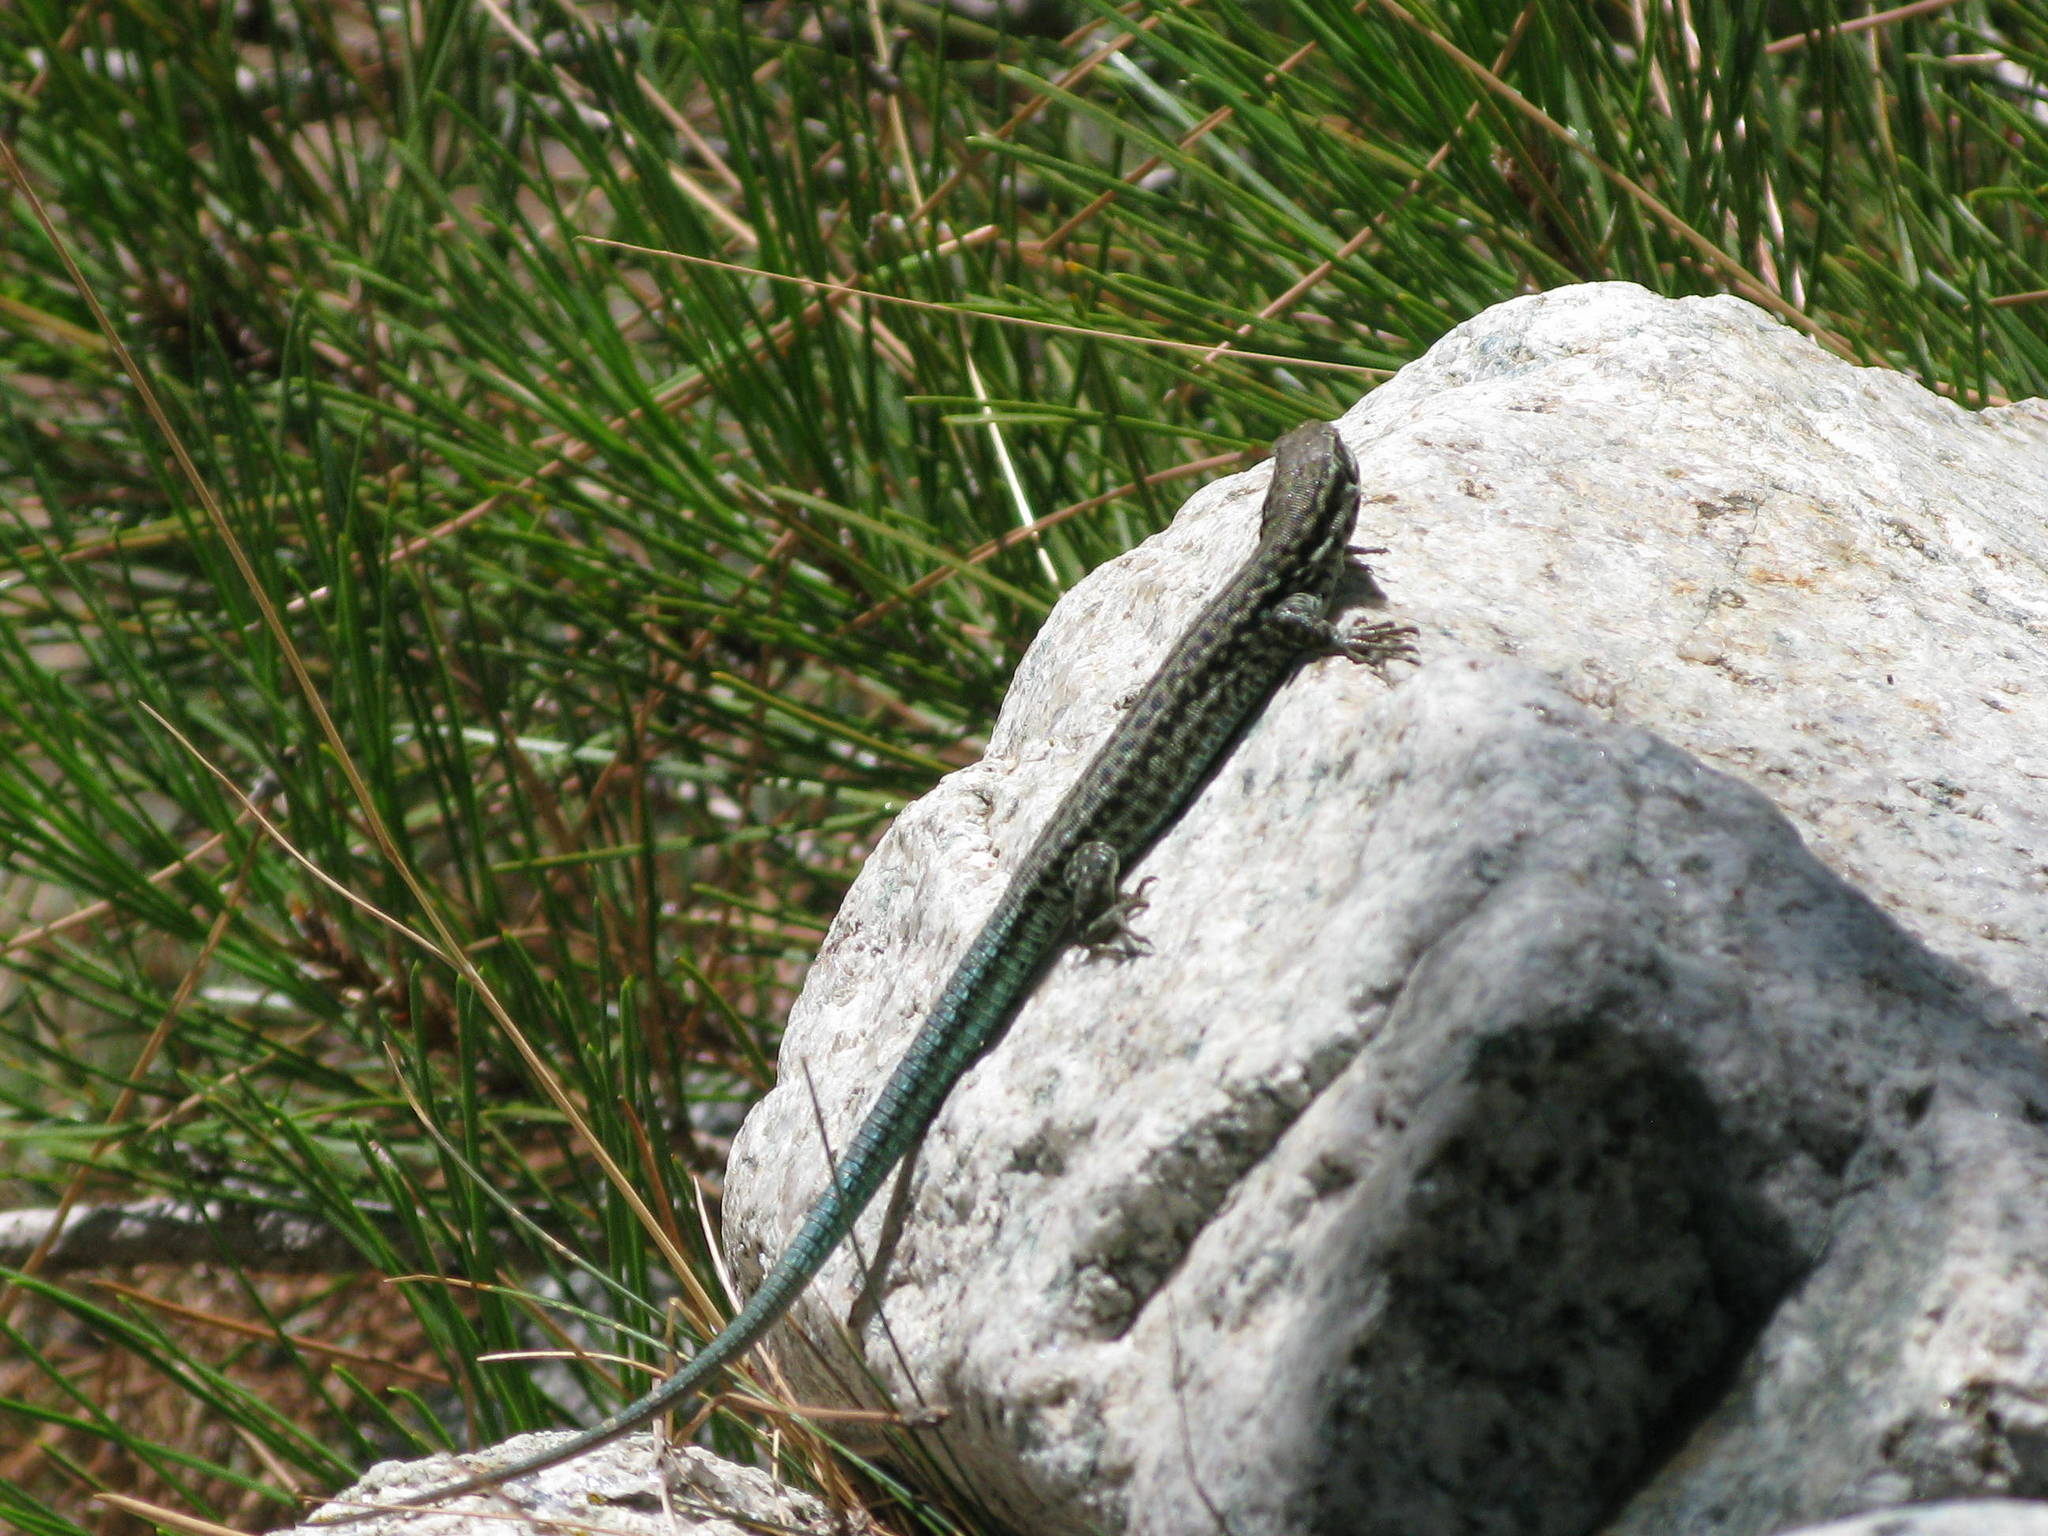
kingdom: Animalia
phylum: Chordata
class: Squamata
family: Lacertidae
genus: Podarcis
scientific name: Podarcis tiliguerta
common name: Tyrrhenian wall lizard
